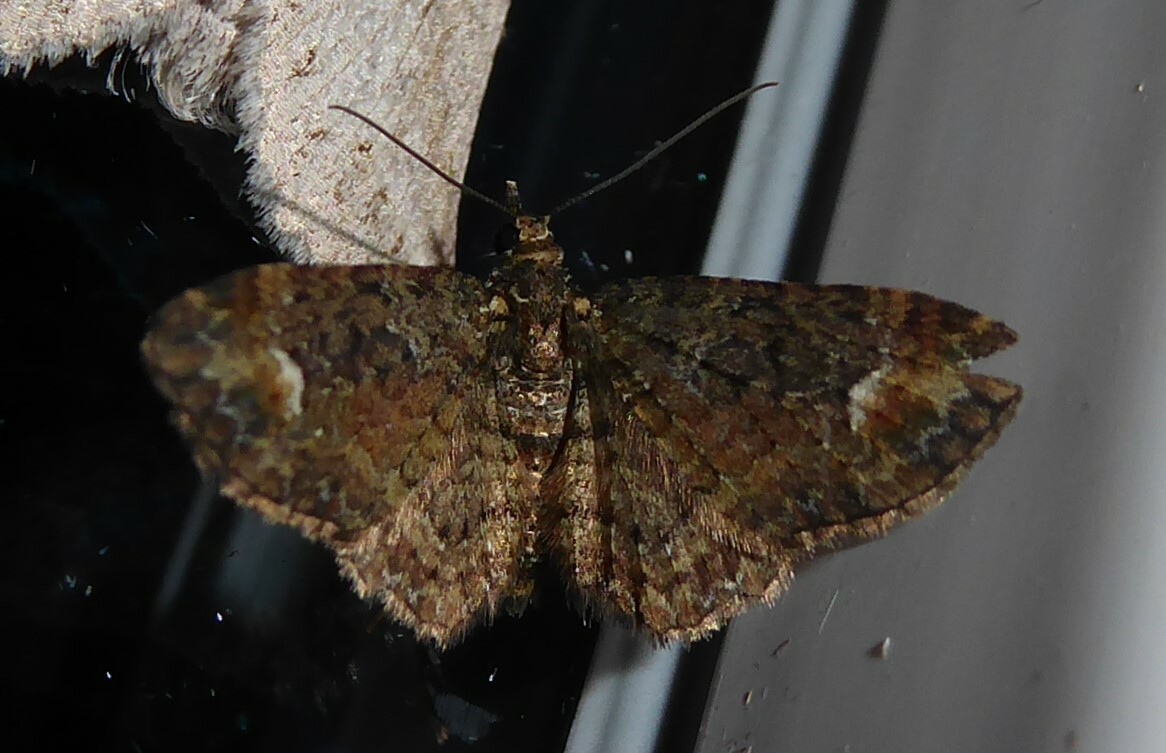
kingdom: Animalia
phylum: Arthropoda
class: Insecta
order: Lepidoptera
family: Geometridae
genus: Pasiphilodes
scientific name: Pasiphilodes testulata
